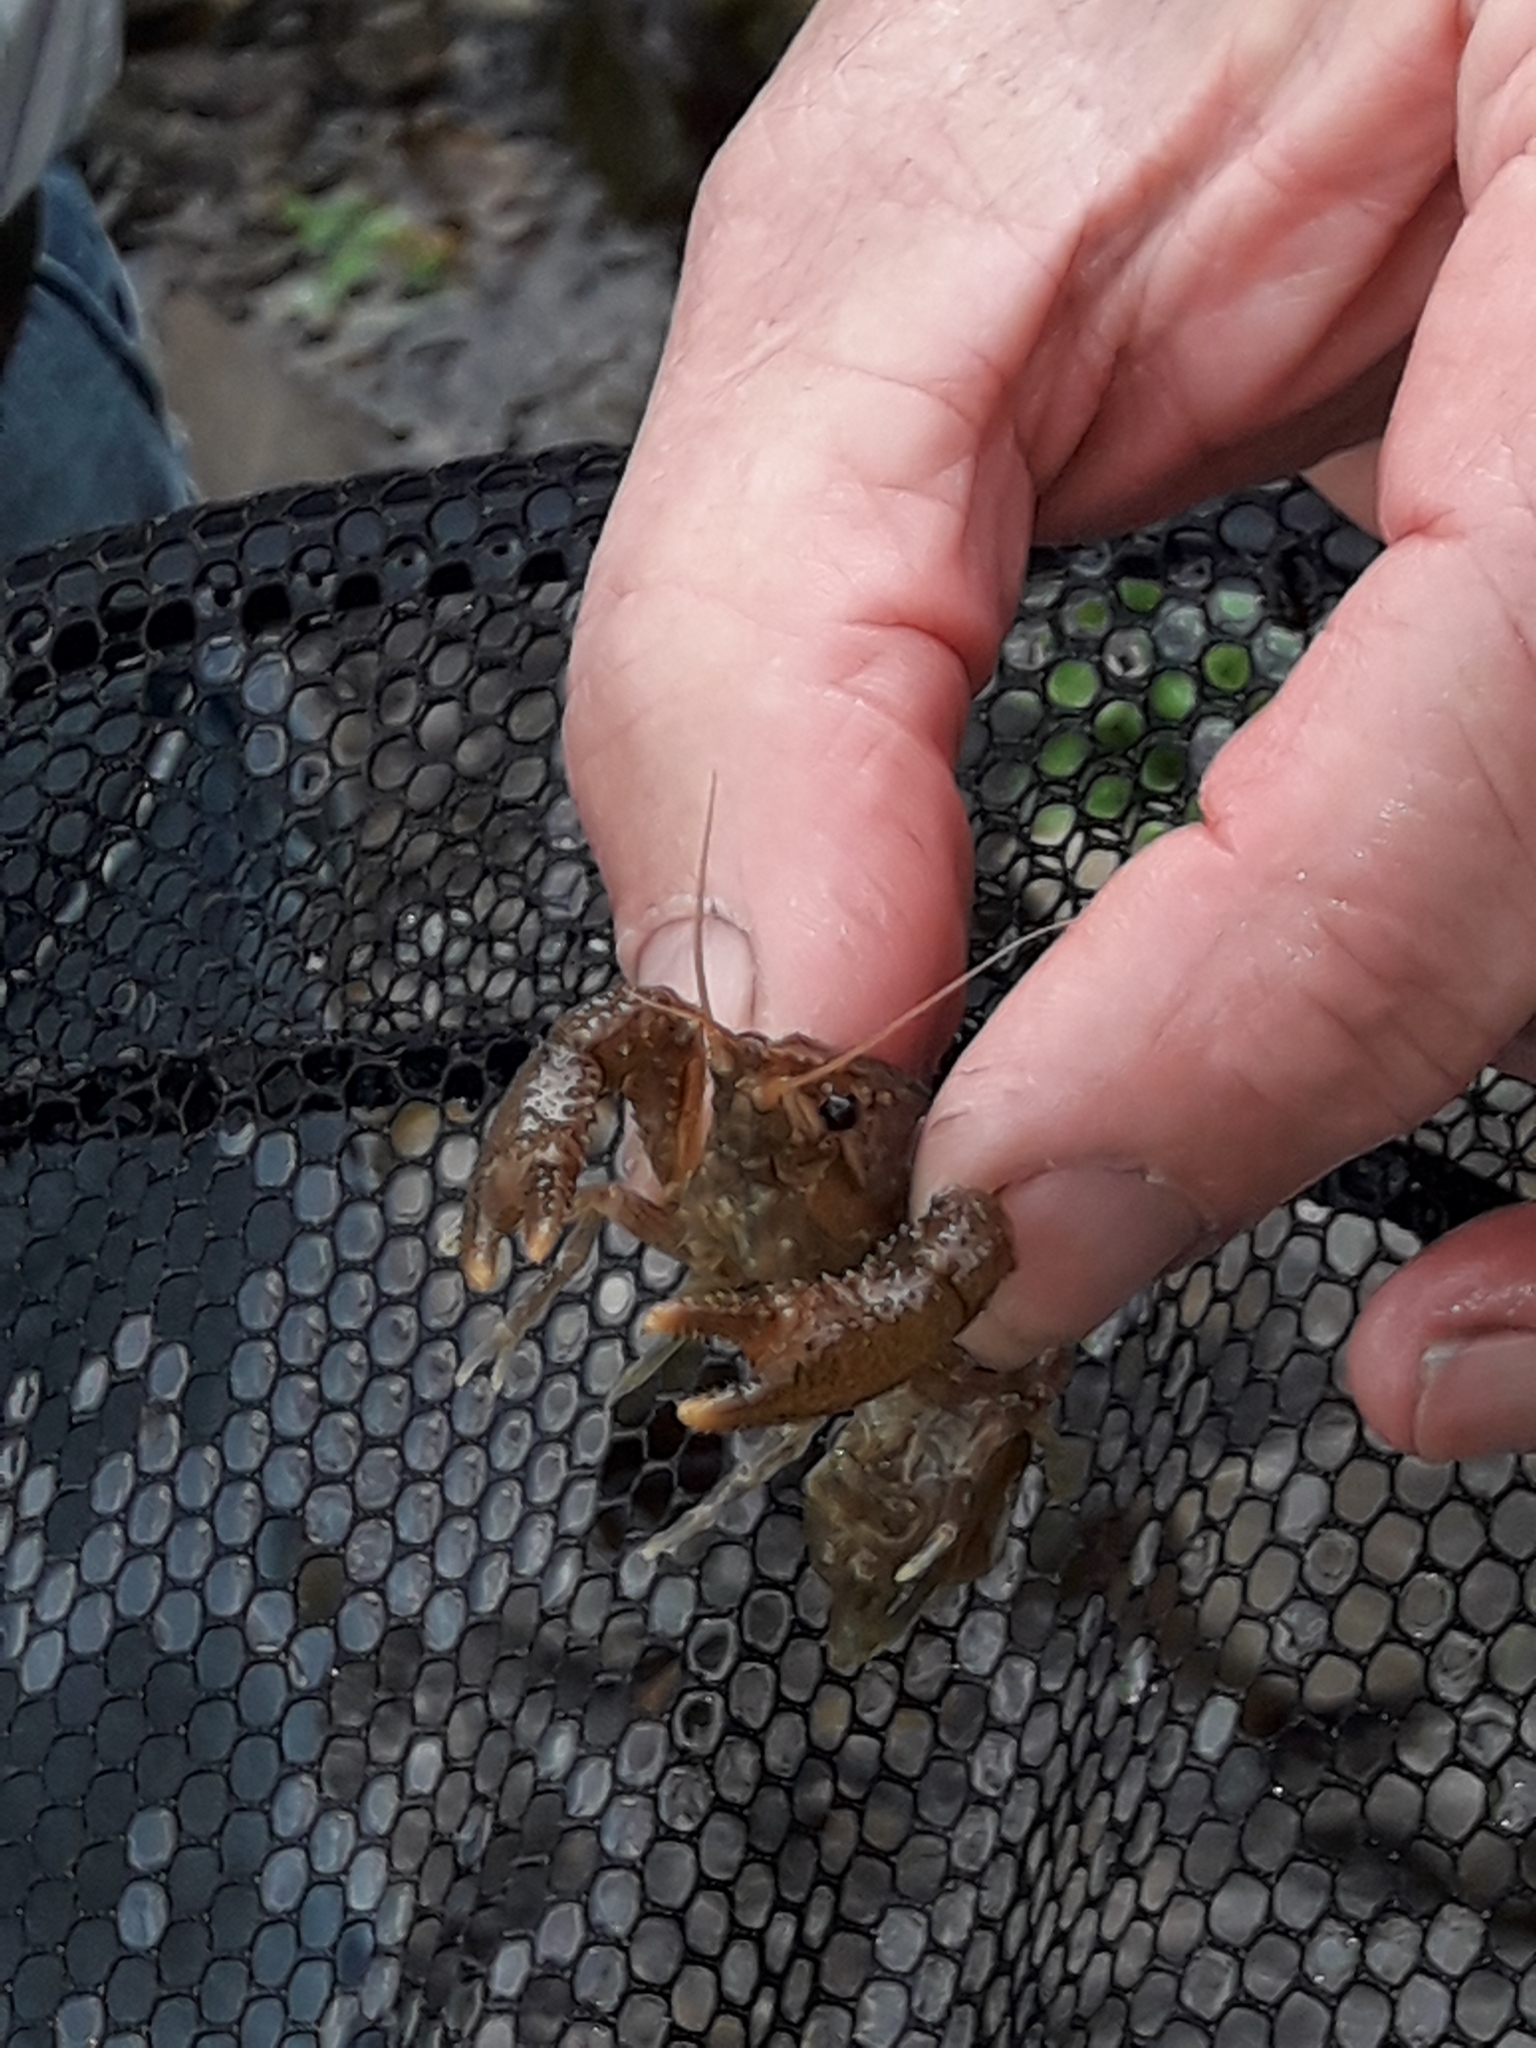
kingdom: Animalia
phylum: Arthropoda
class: Malacostraca
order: Decapoda
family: Parastacidae
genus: Paranephrops
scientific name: Paranephrops planifrons
